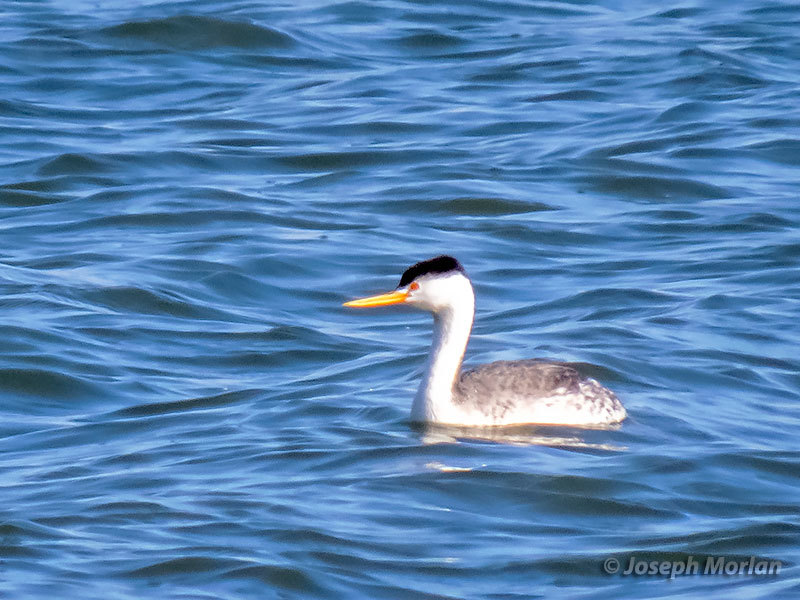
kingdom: Animalia
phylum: Chordata
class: Aves
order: Podicipediformes
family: Podicipedidae
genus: Aechmophorus
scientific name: Aechmophorus clarkii
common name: Clark's grebe
